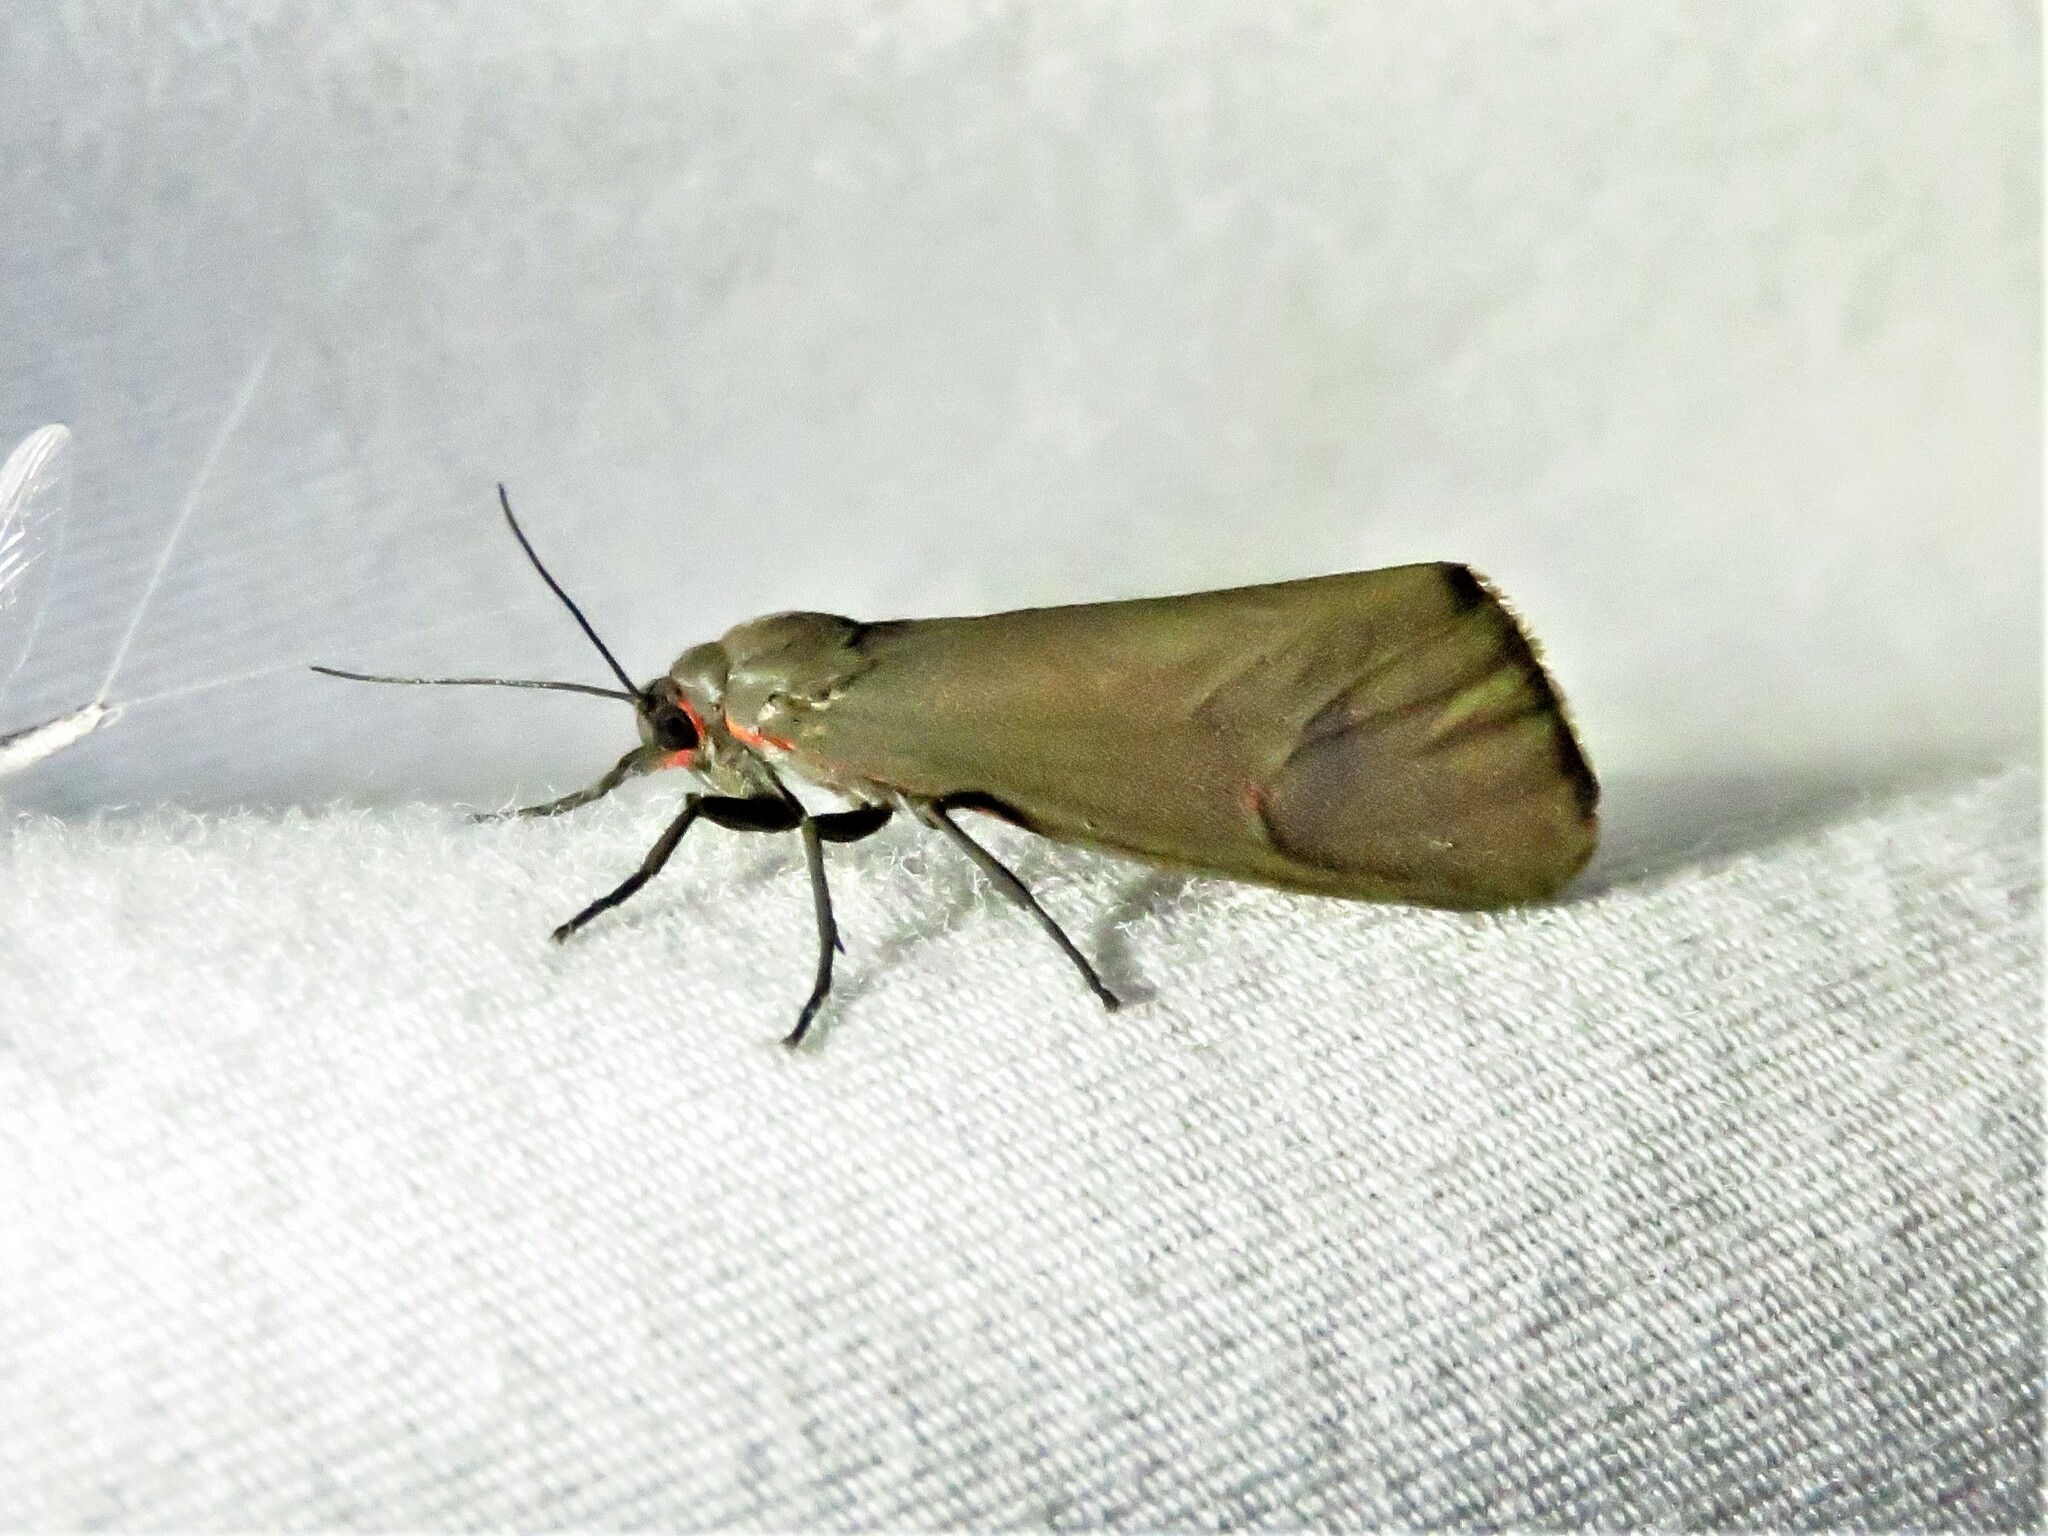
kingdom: Animalia
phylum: Arthropoda
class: Insecta
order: Lepidoptera
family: Erebidae
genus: Virbia
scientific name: Virbia costata
